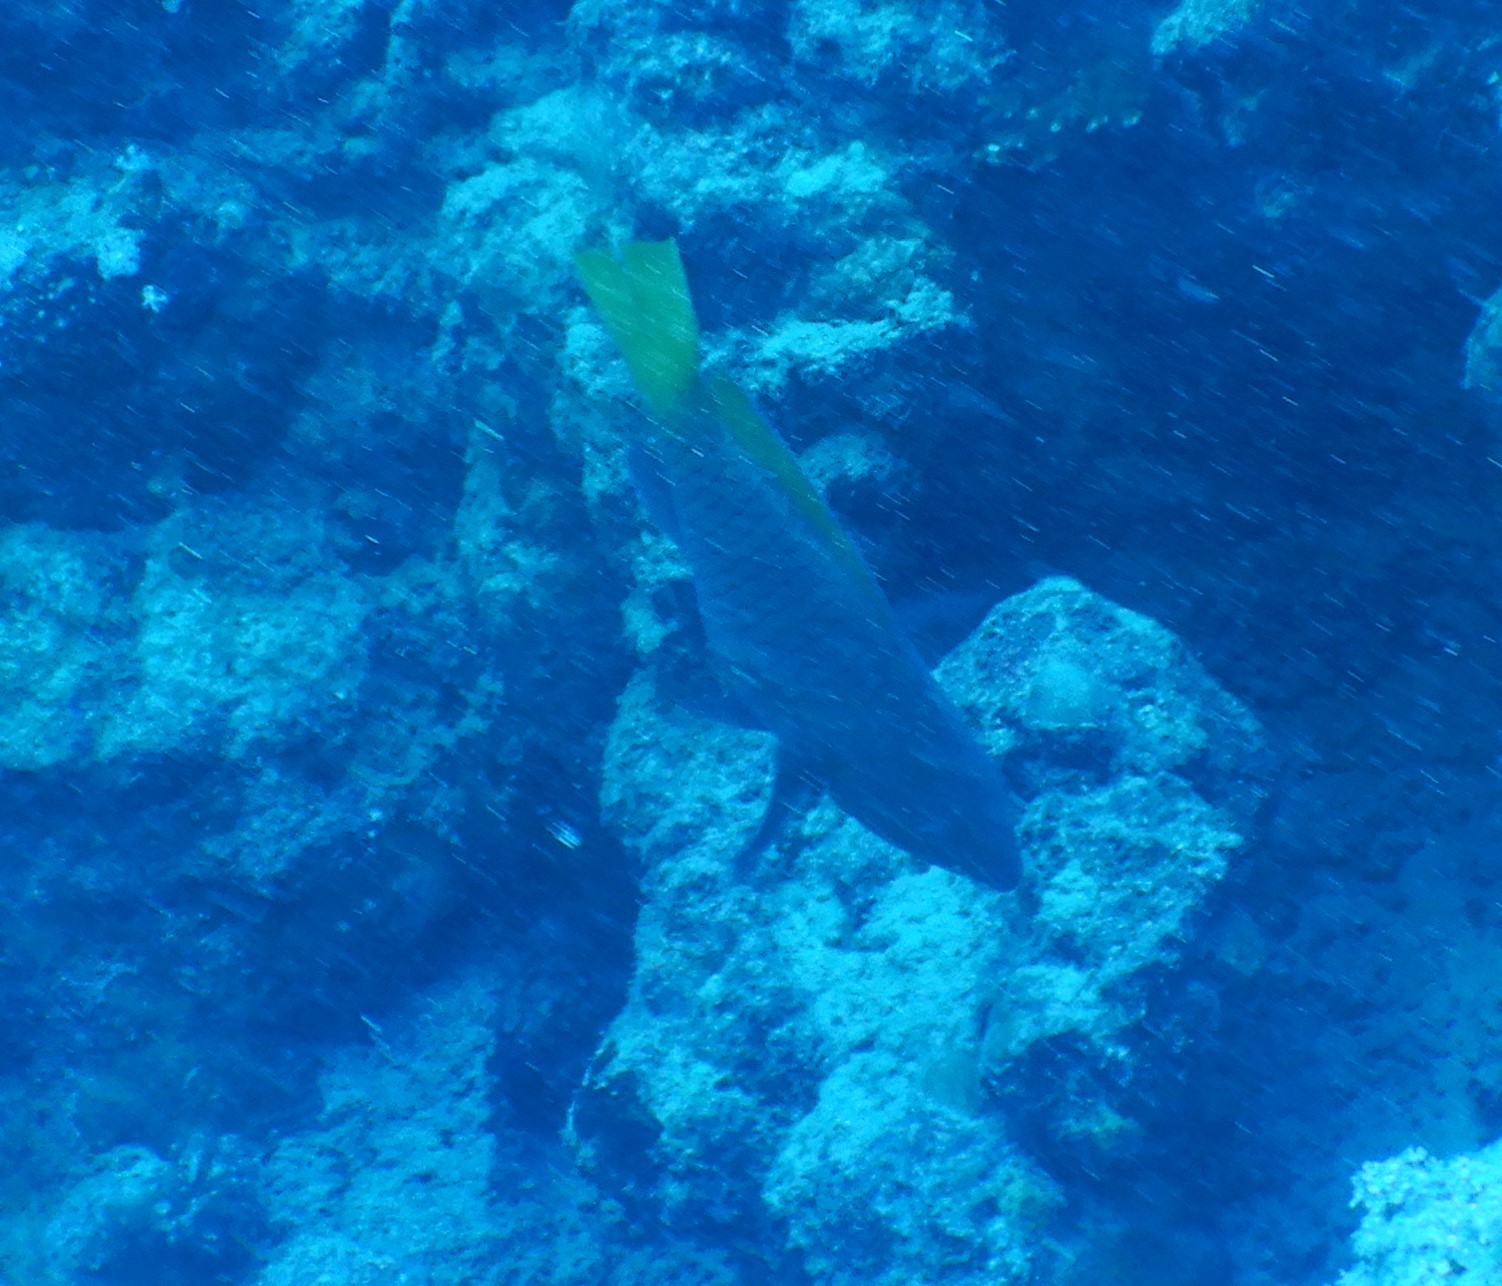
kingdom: Animalia
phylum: Chordata
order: Perciformes
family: Scaridae
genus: Scarus
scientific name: Scarus ferrugineus
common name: Rusty parrotfish
